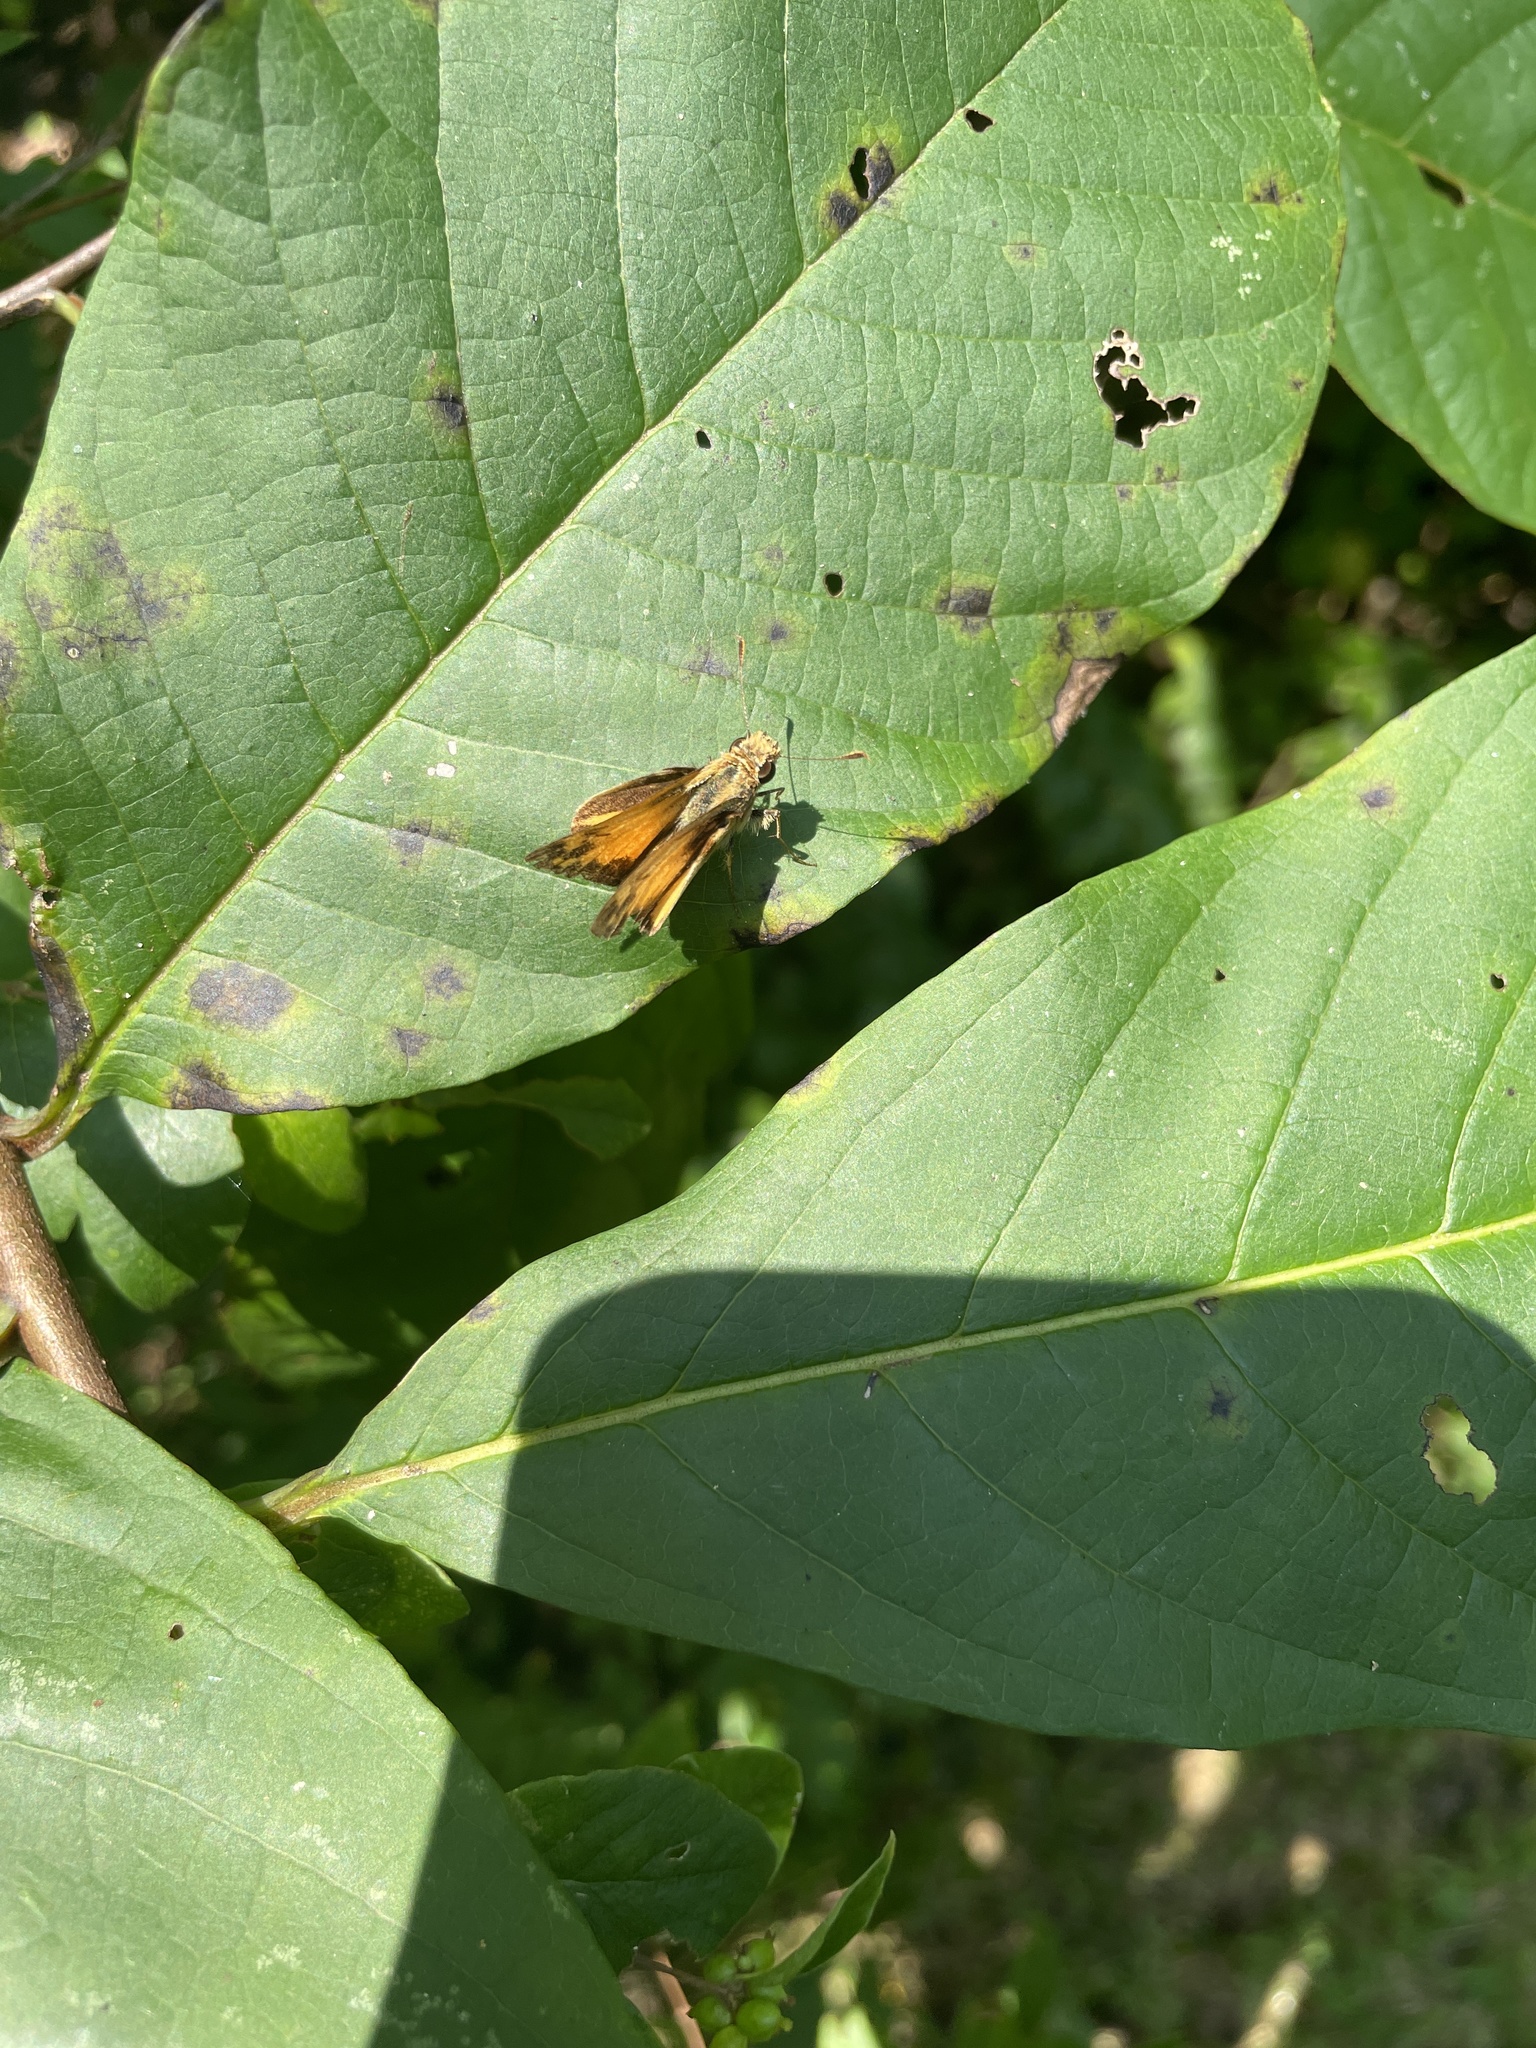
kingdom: Animalia
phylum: Arthropoda
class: Insecta
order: Lepidoptera
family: Hesperiidae
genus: Lon
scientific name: Lon zabulon
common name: Zabulon skipper
